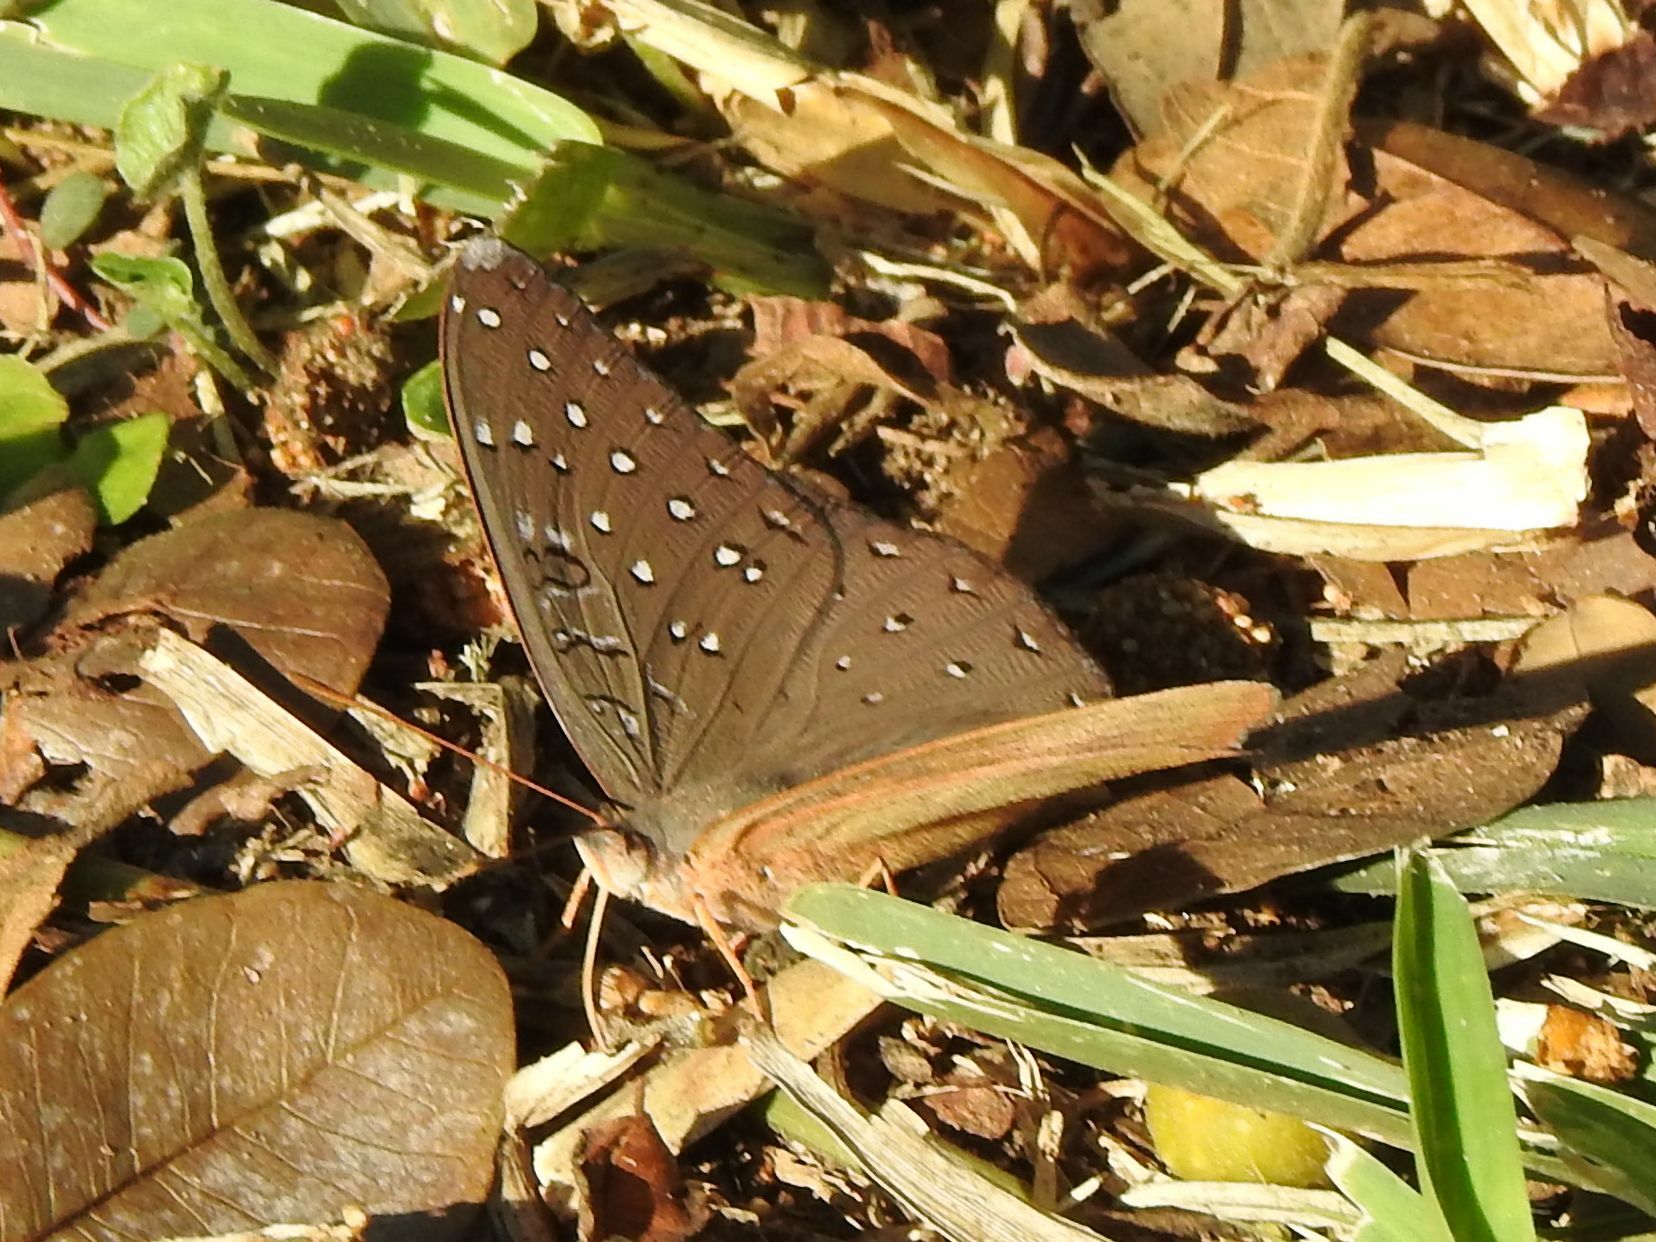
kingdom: Animalia
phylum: Arthropoda
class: Insecta
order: Lepidoptera
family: Nymphalidae
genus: Hamanumida
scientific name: Hamanumida daedalus
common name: Guinea-fowl butterfly
